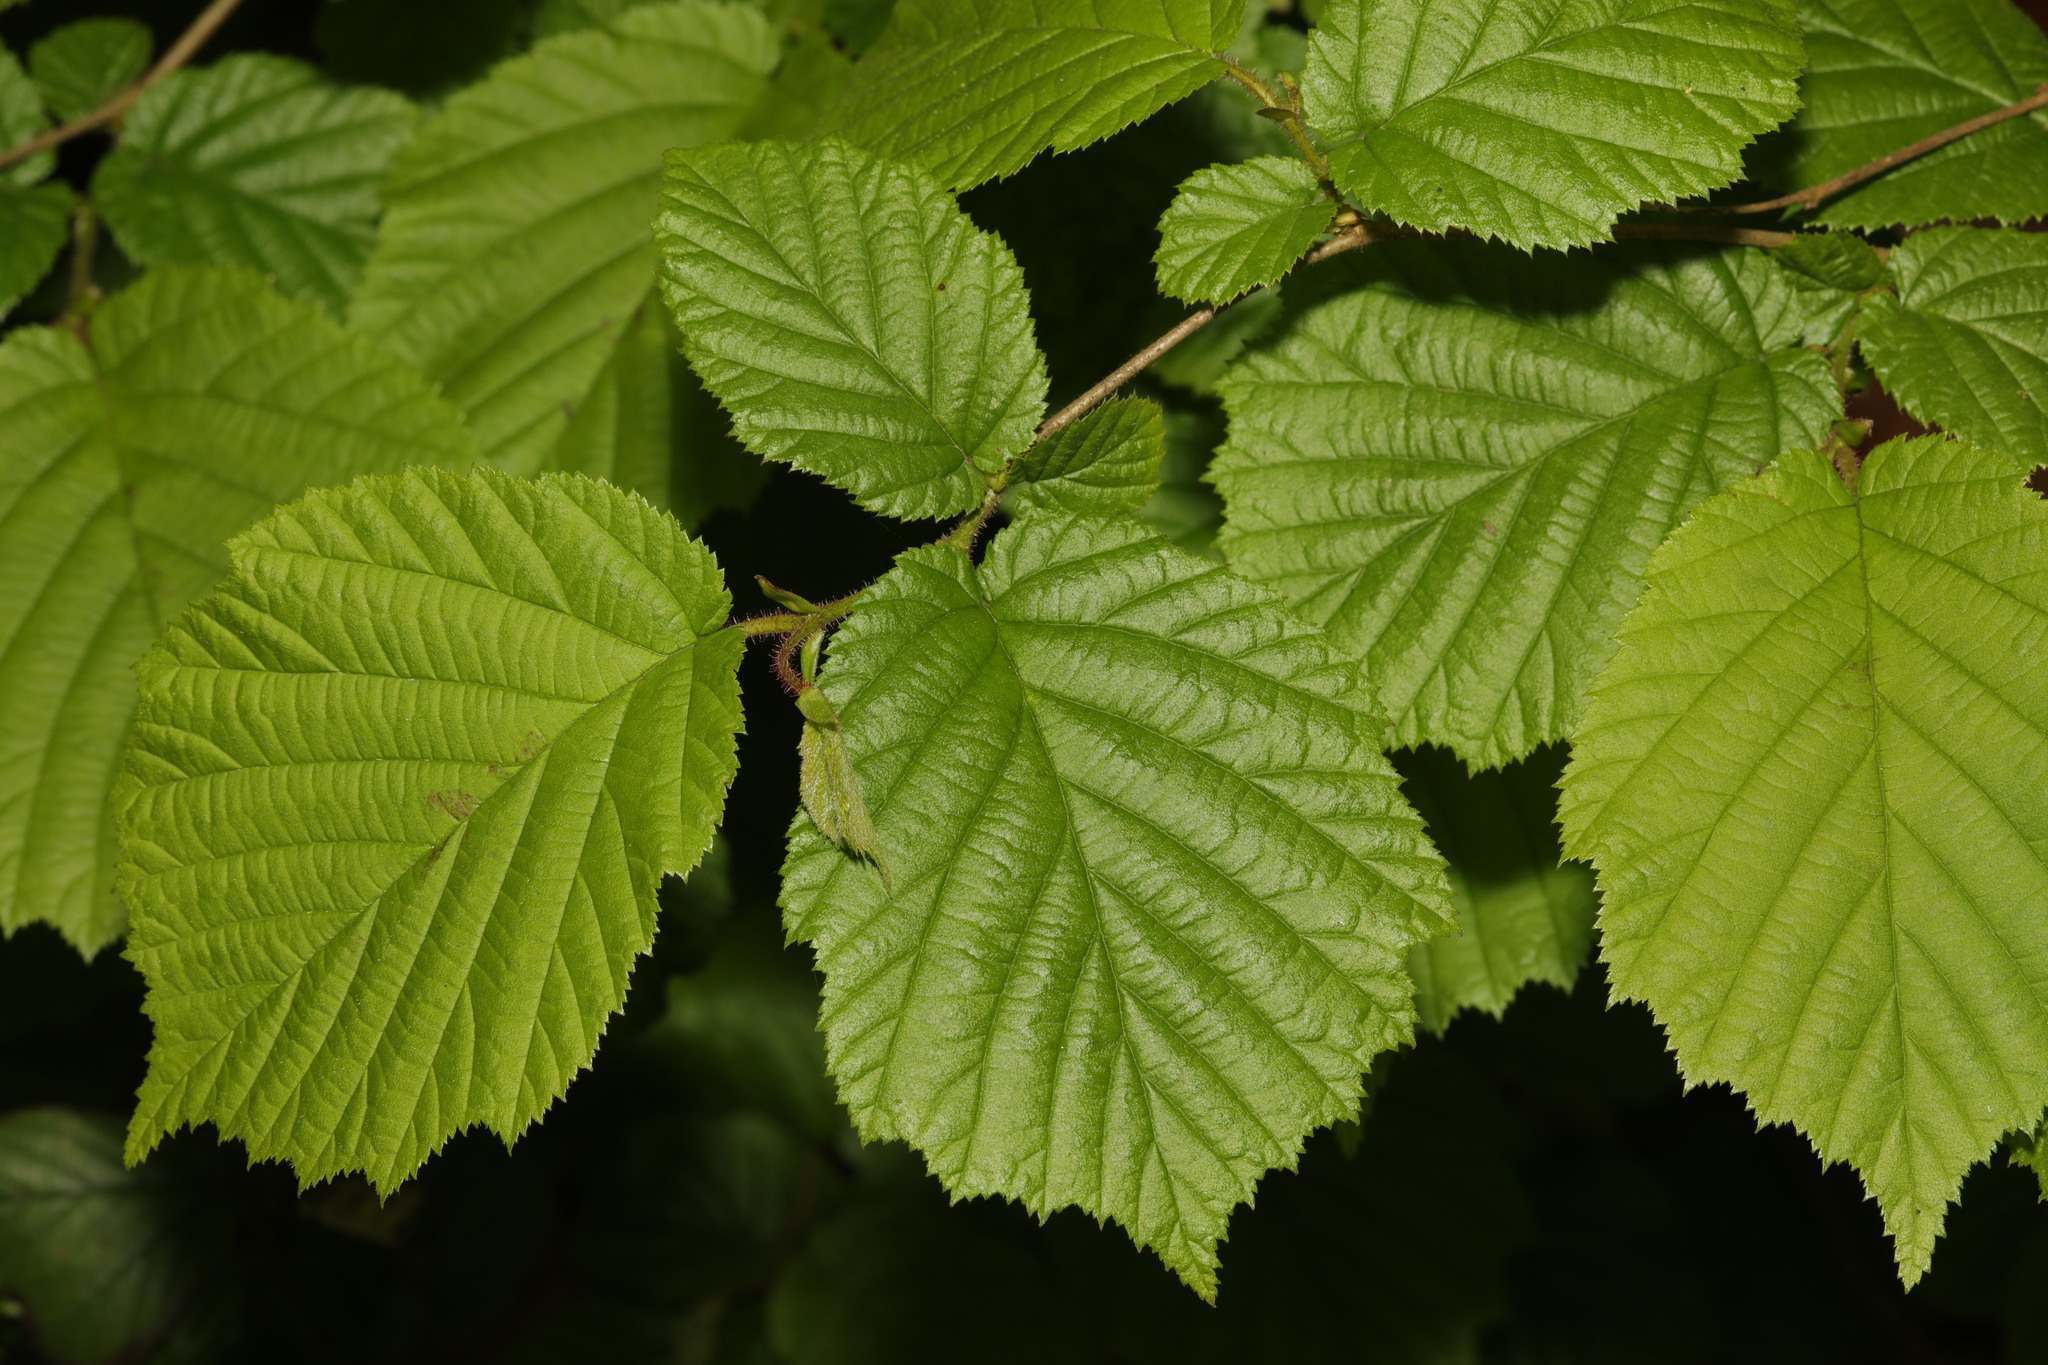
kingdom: Plantae
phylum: Tracheophyta
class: Magnoliopsida
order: Fagales
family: Betulaceae
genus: Corylus
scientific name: Corylus avellana
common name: European hazel
